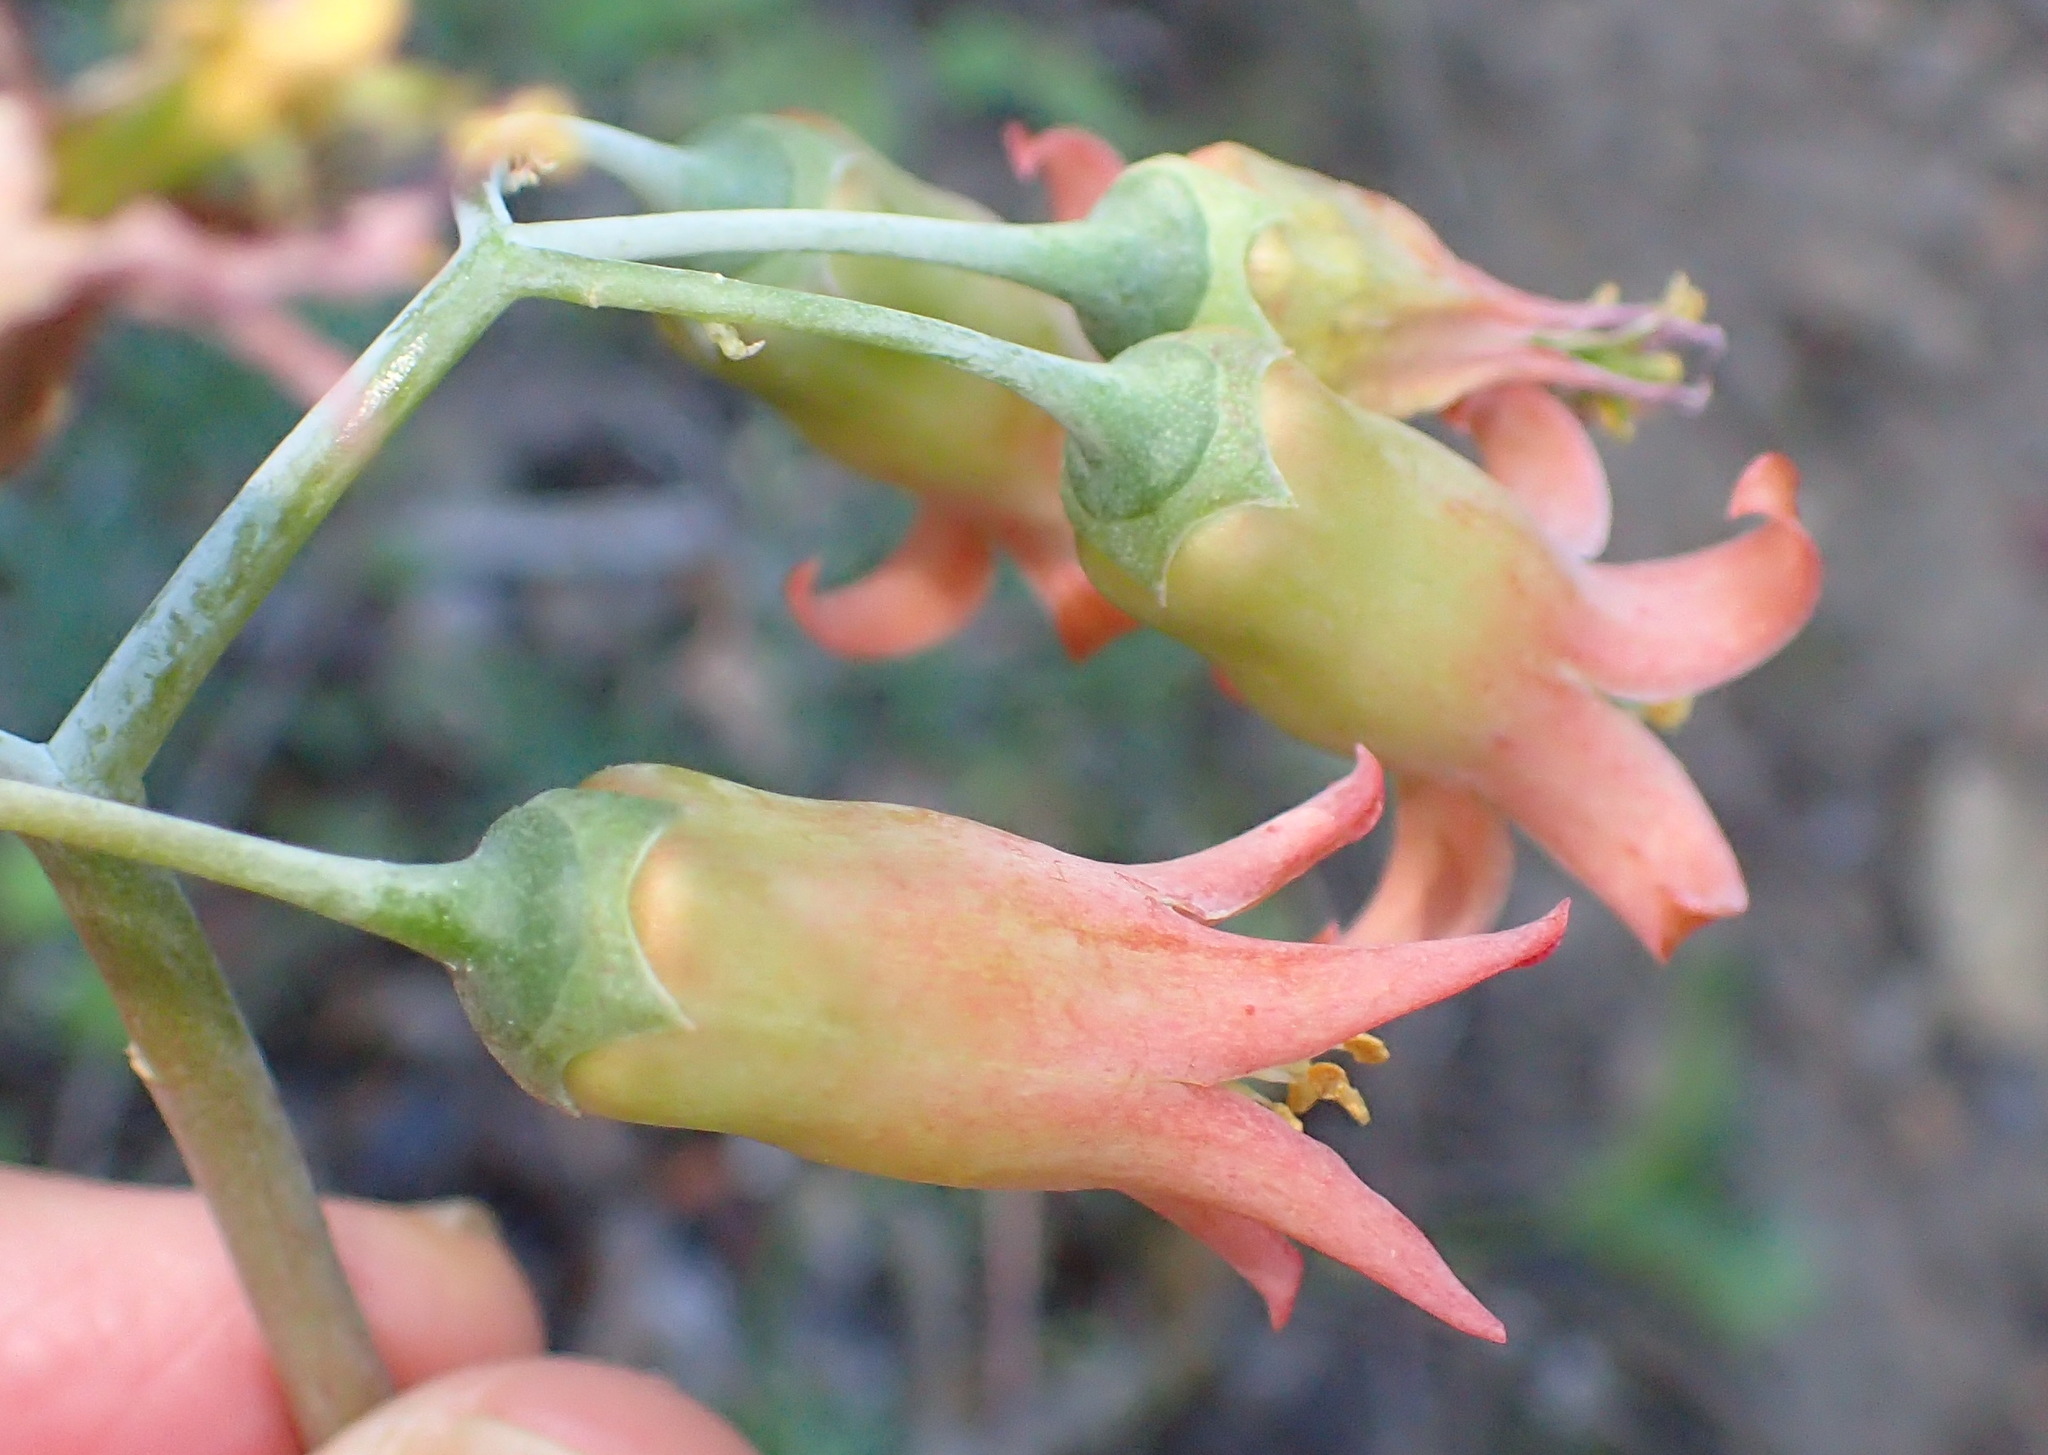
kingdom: Plantae
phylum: Tracheophyta
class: Magnoliopsida
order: Saxifragales
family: Crassulaceae
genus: Cotyledon
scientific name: Cotyledon orbiculata
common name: Pig's ear
